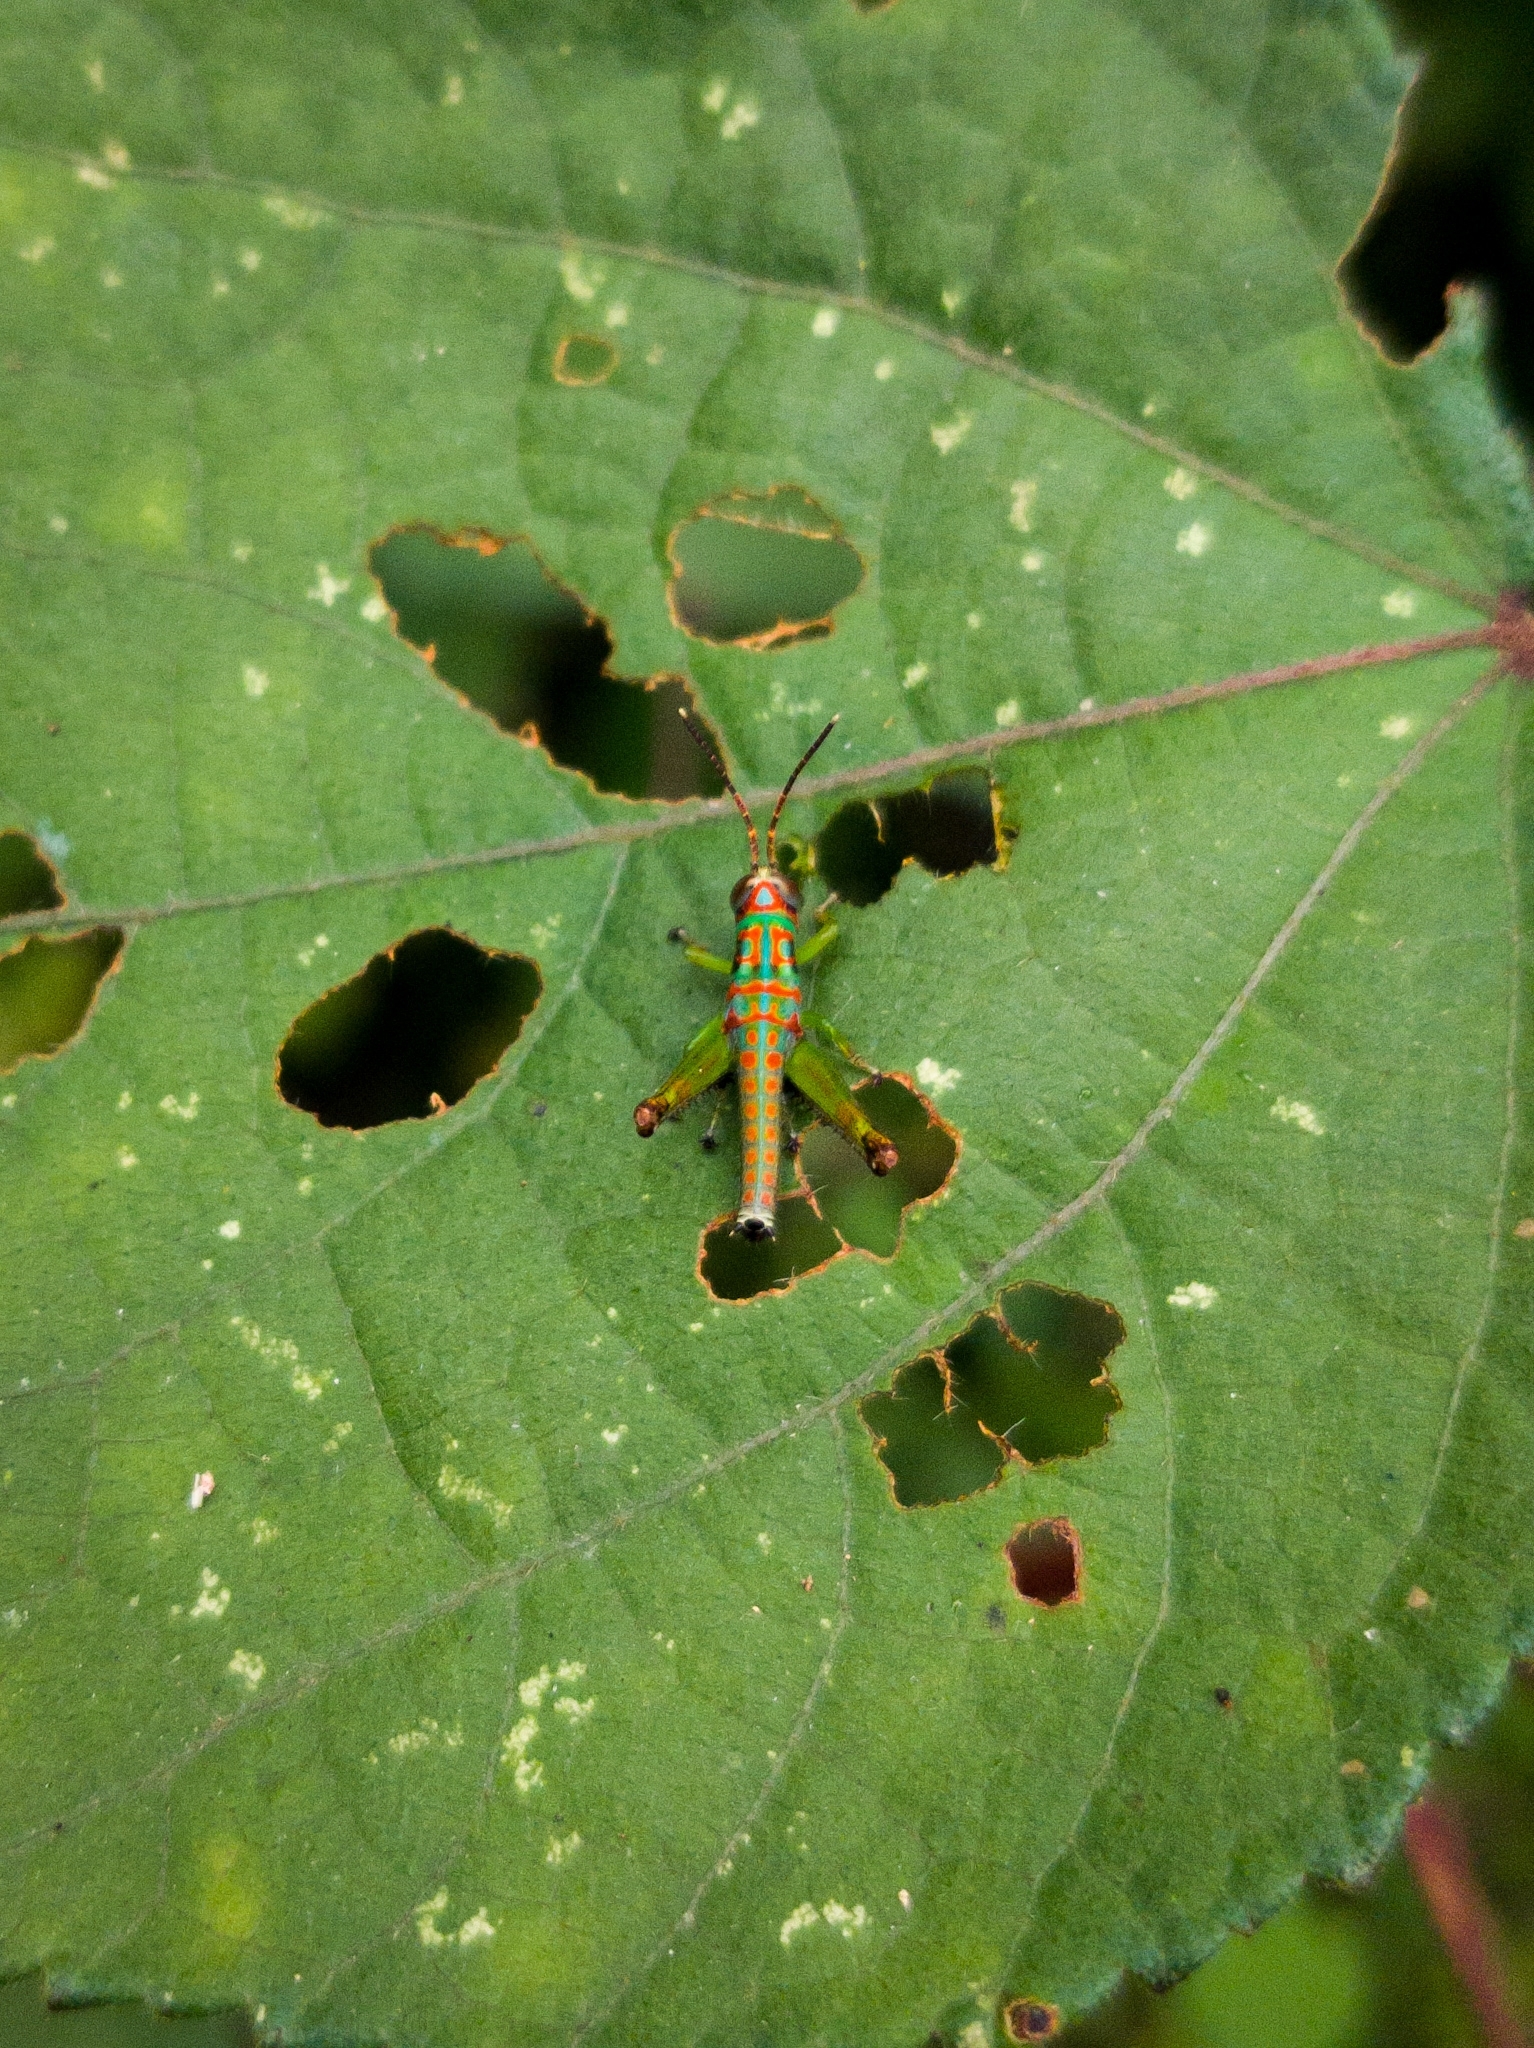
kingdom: Animalia
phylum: Arthropoda
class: Insecta
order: Orthoptera
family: Acrididae
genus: Pirithoicus
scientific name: Pirithoicus ophthalmicus
